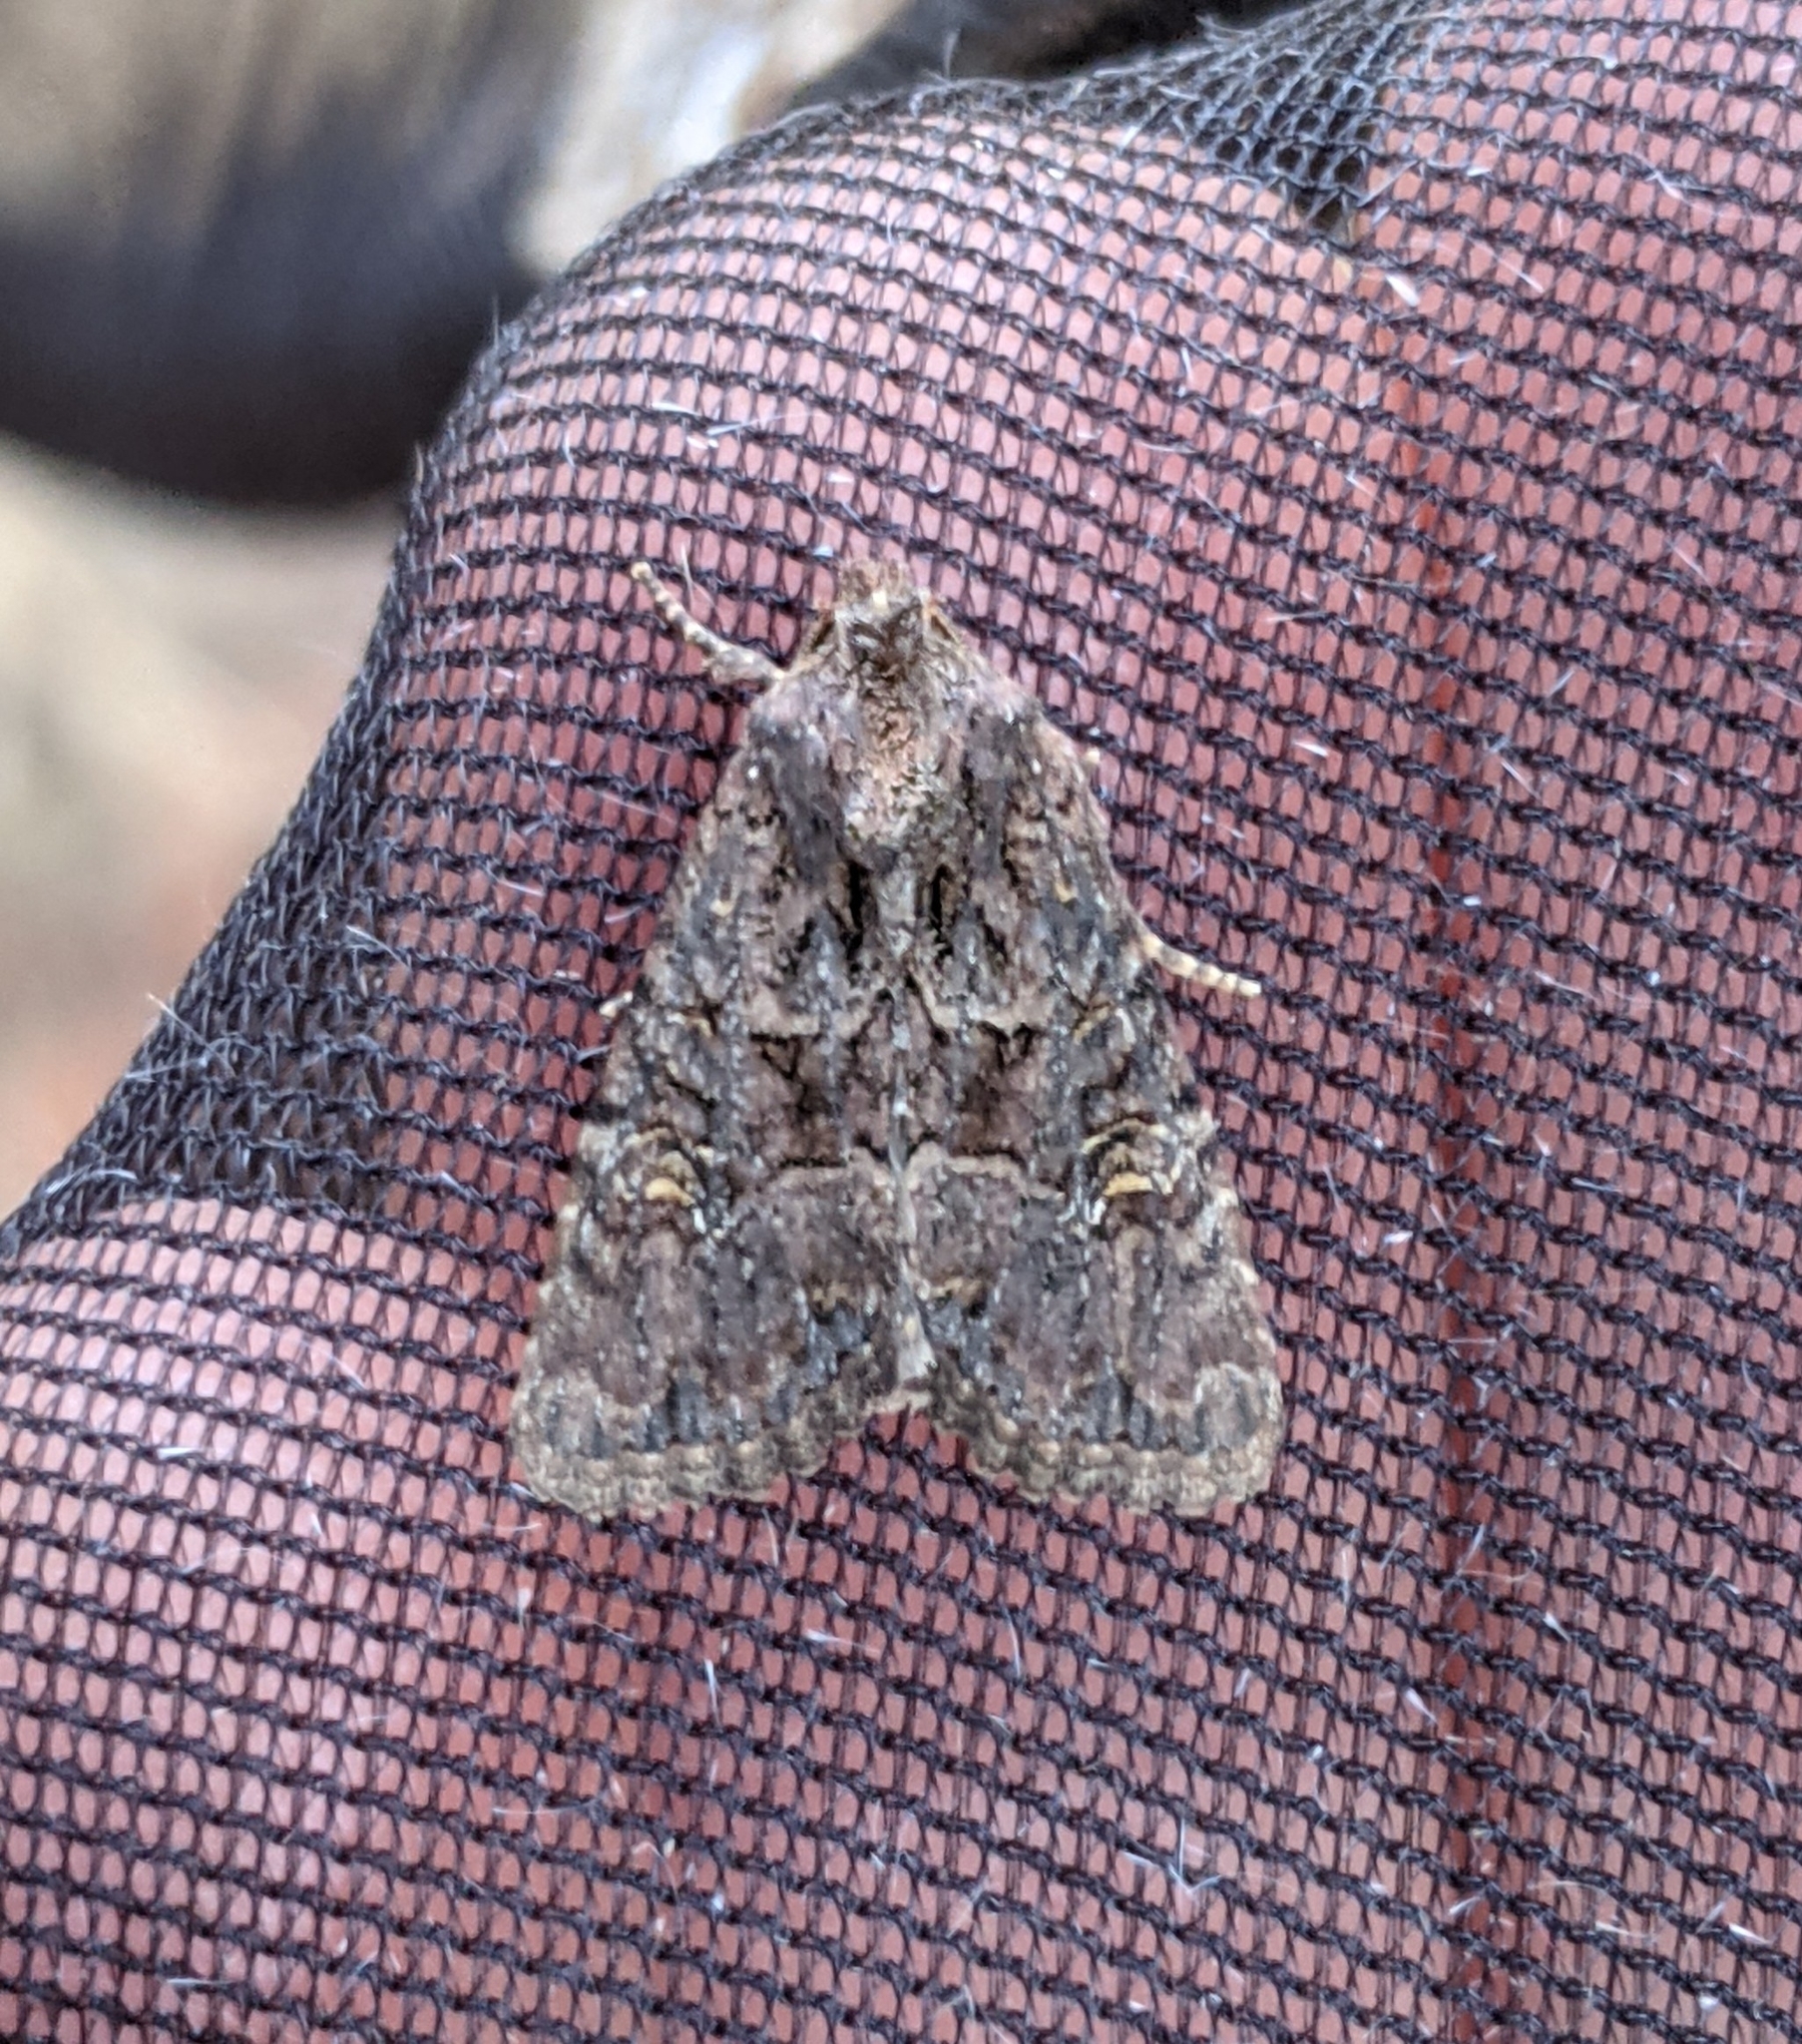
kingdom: Animalia
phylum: Arthropoda
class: Insecta
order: Lepidoptera
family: Noctuidae
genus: Mesapamea
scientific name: Mesapamea secalis
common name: Common rustic
